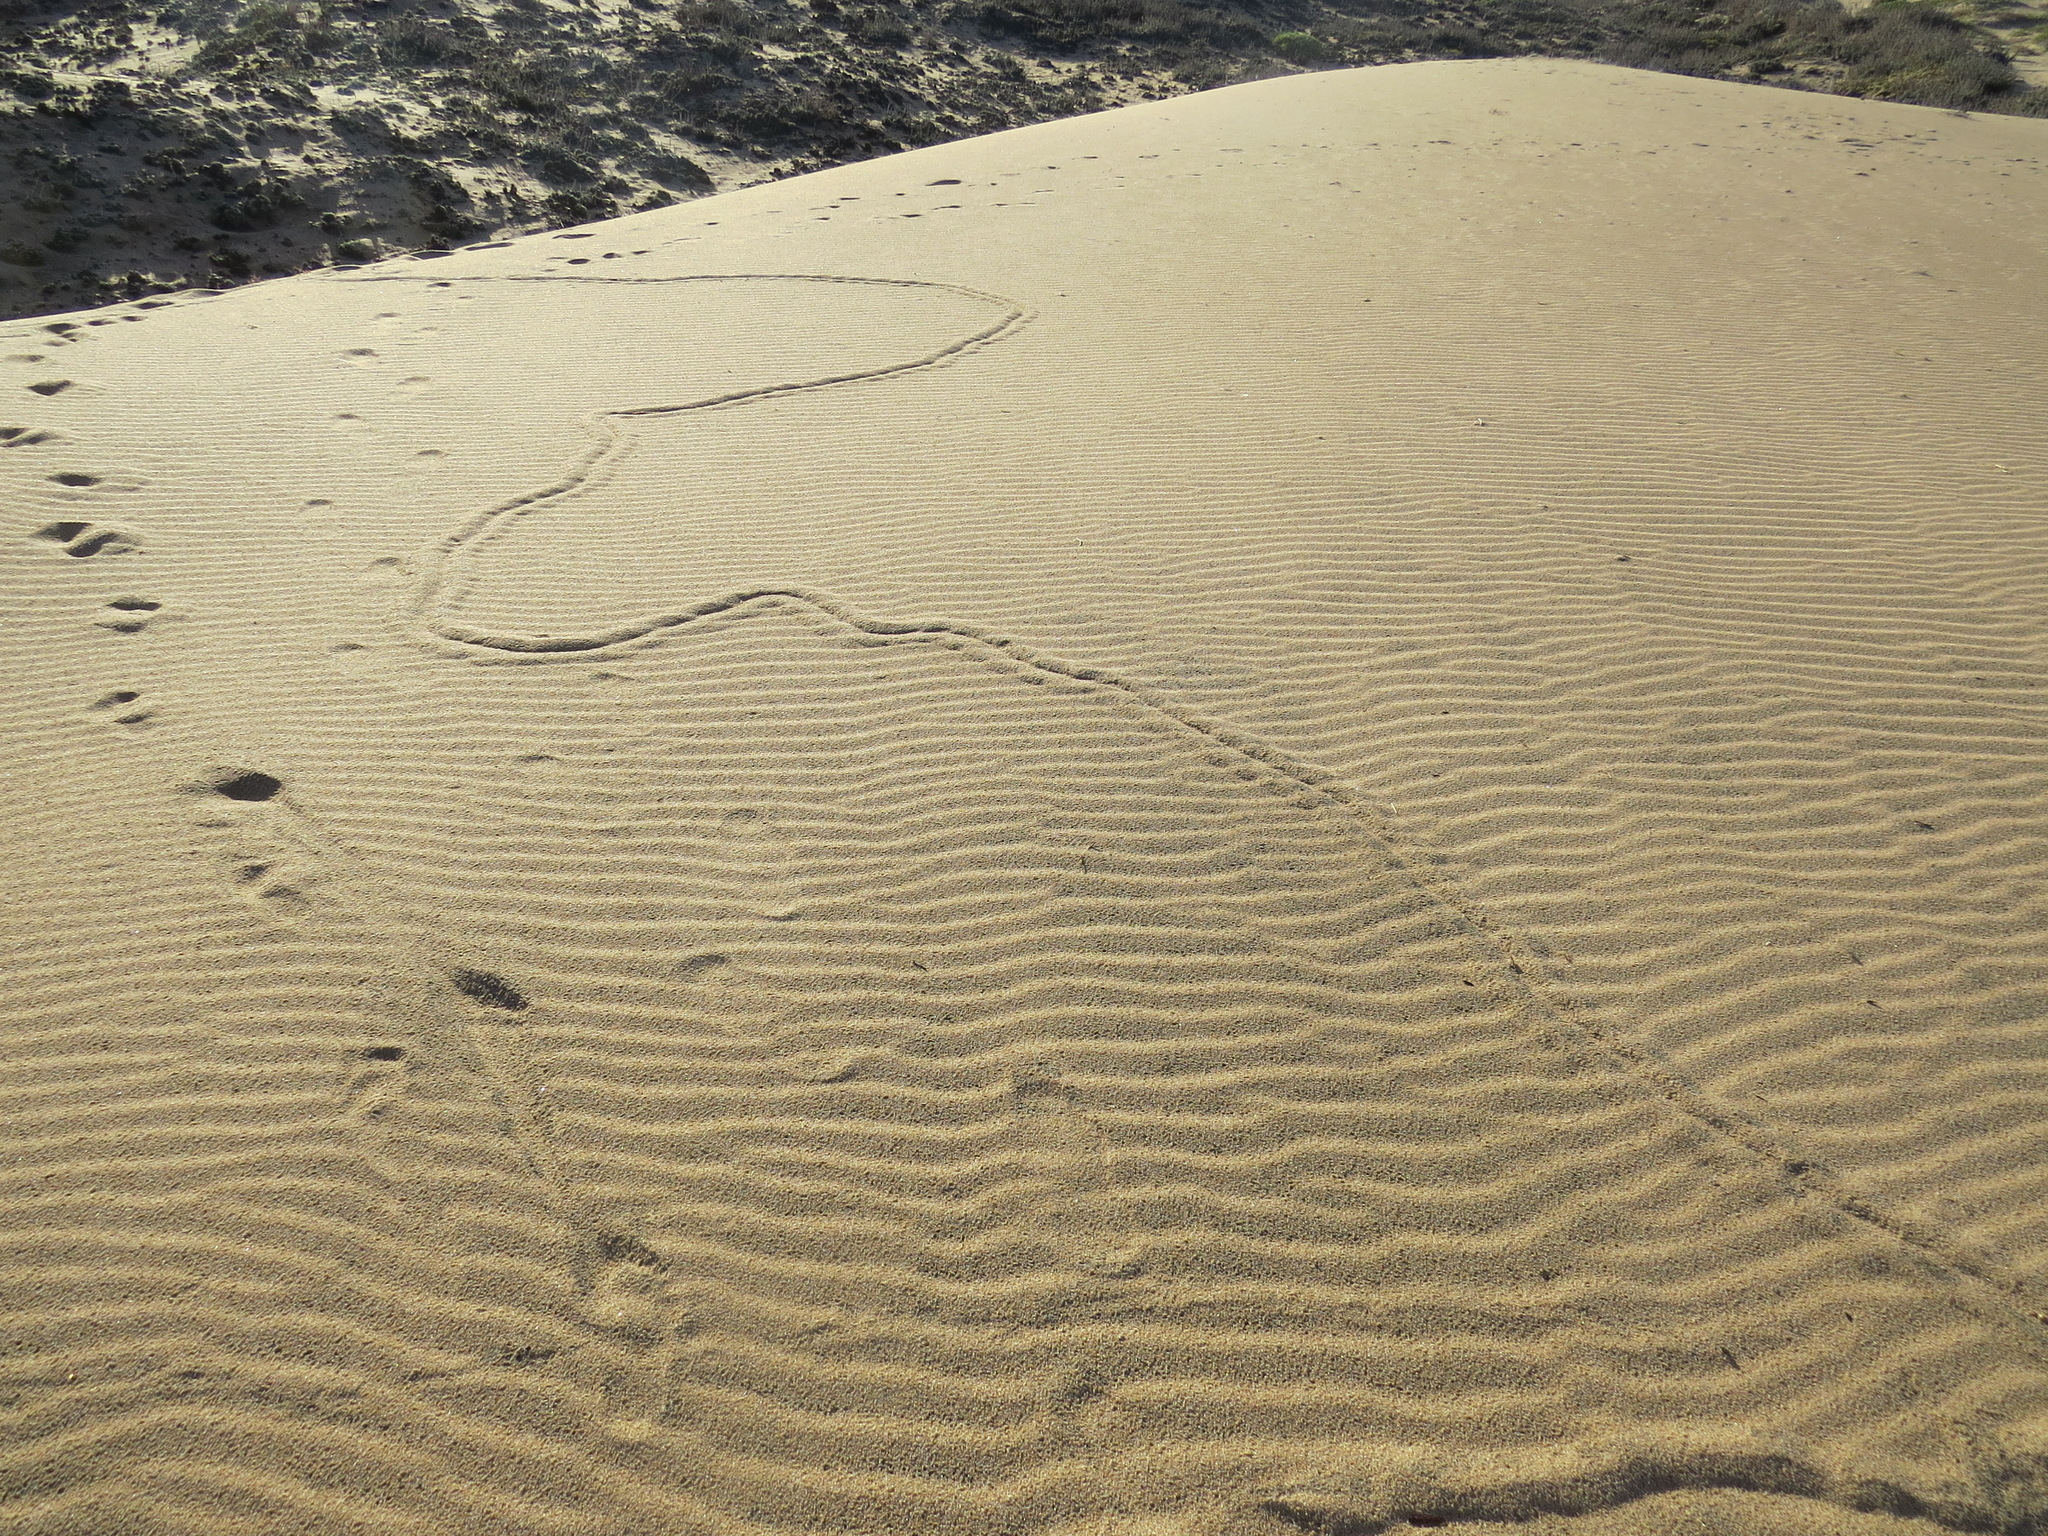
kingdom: Animalia
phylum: Chordata
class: Mammalia
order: Soricomorpha
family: Talpidae
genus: Scapanus
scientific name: Scapanus latimanus
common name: Broad-footed mole
